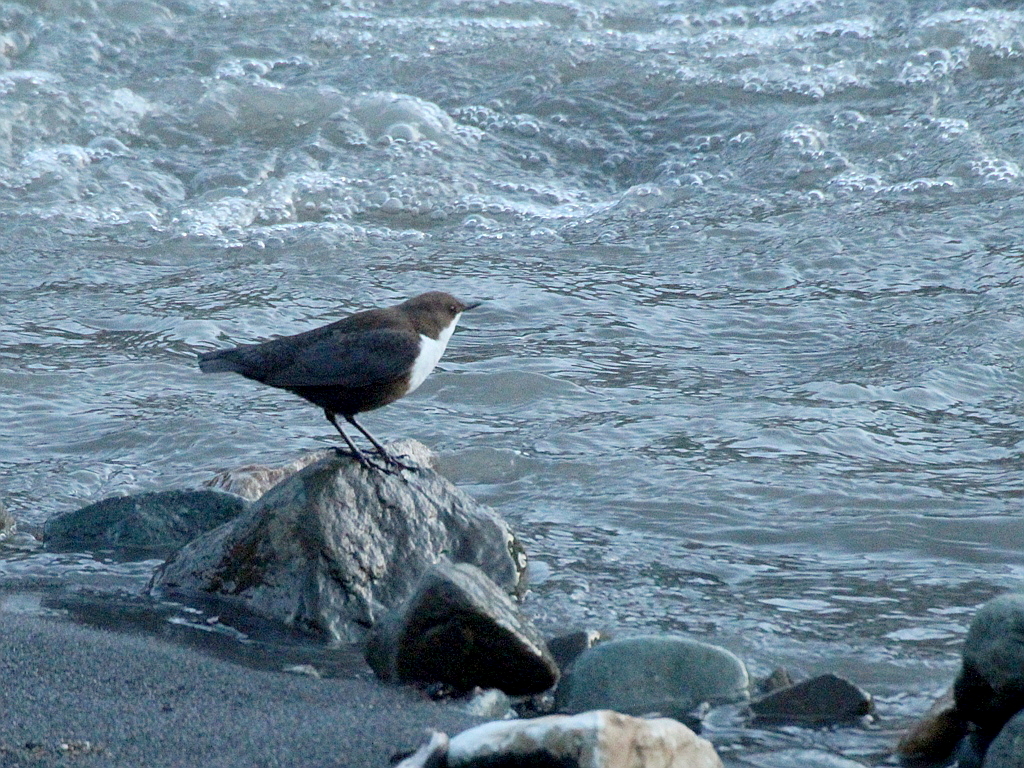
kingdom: Animalia
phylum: Chordata
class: Aves
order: Passeriformes
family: Cinclidae
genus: Cinclus
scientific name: Cinclus cinclus
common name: White-throated dipper
